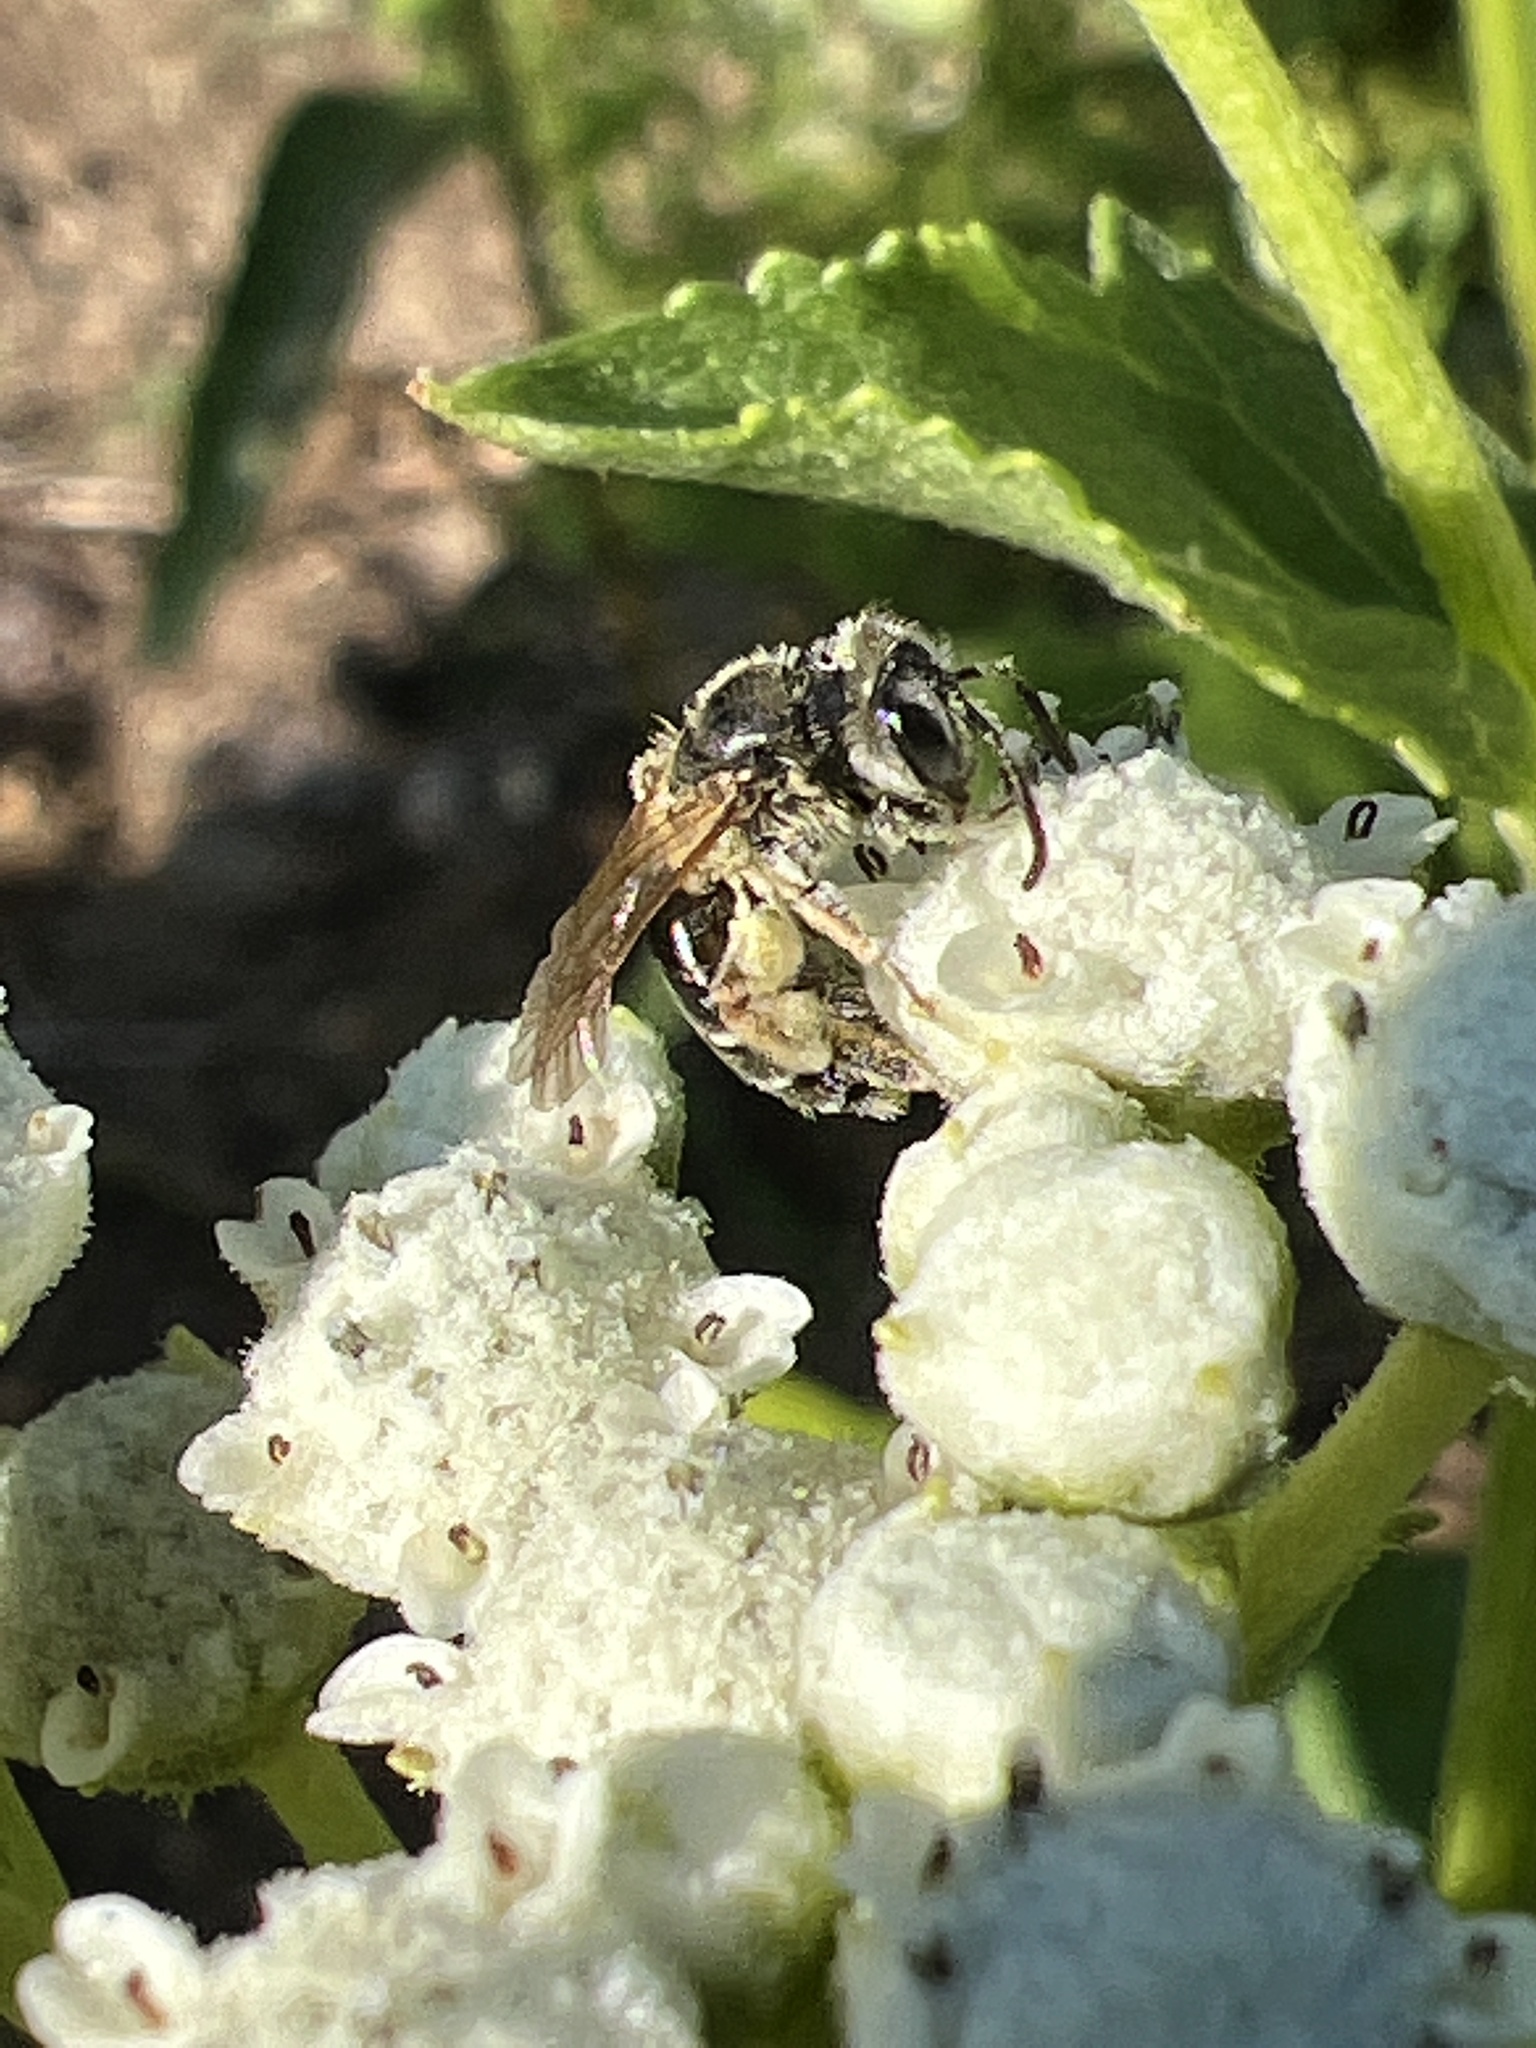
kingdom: Animalia
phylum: Arthropoda
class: Insecta
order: Hymenoptera
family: Andrenidae
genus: Andrena
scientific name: Andrena
